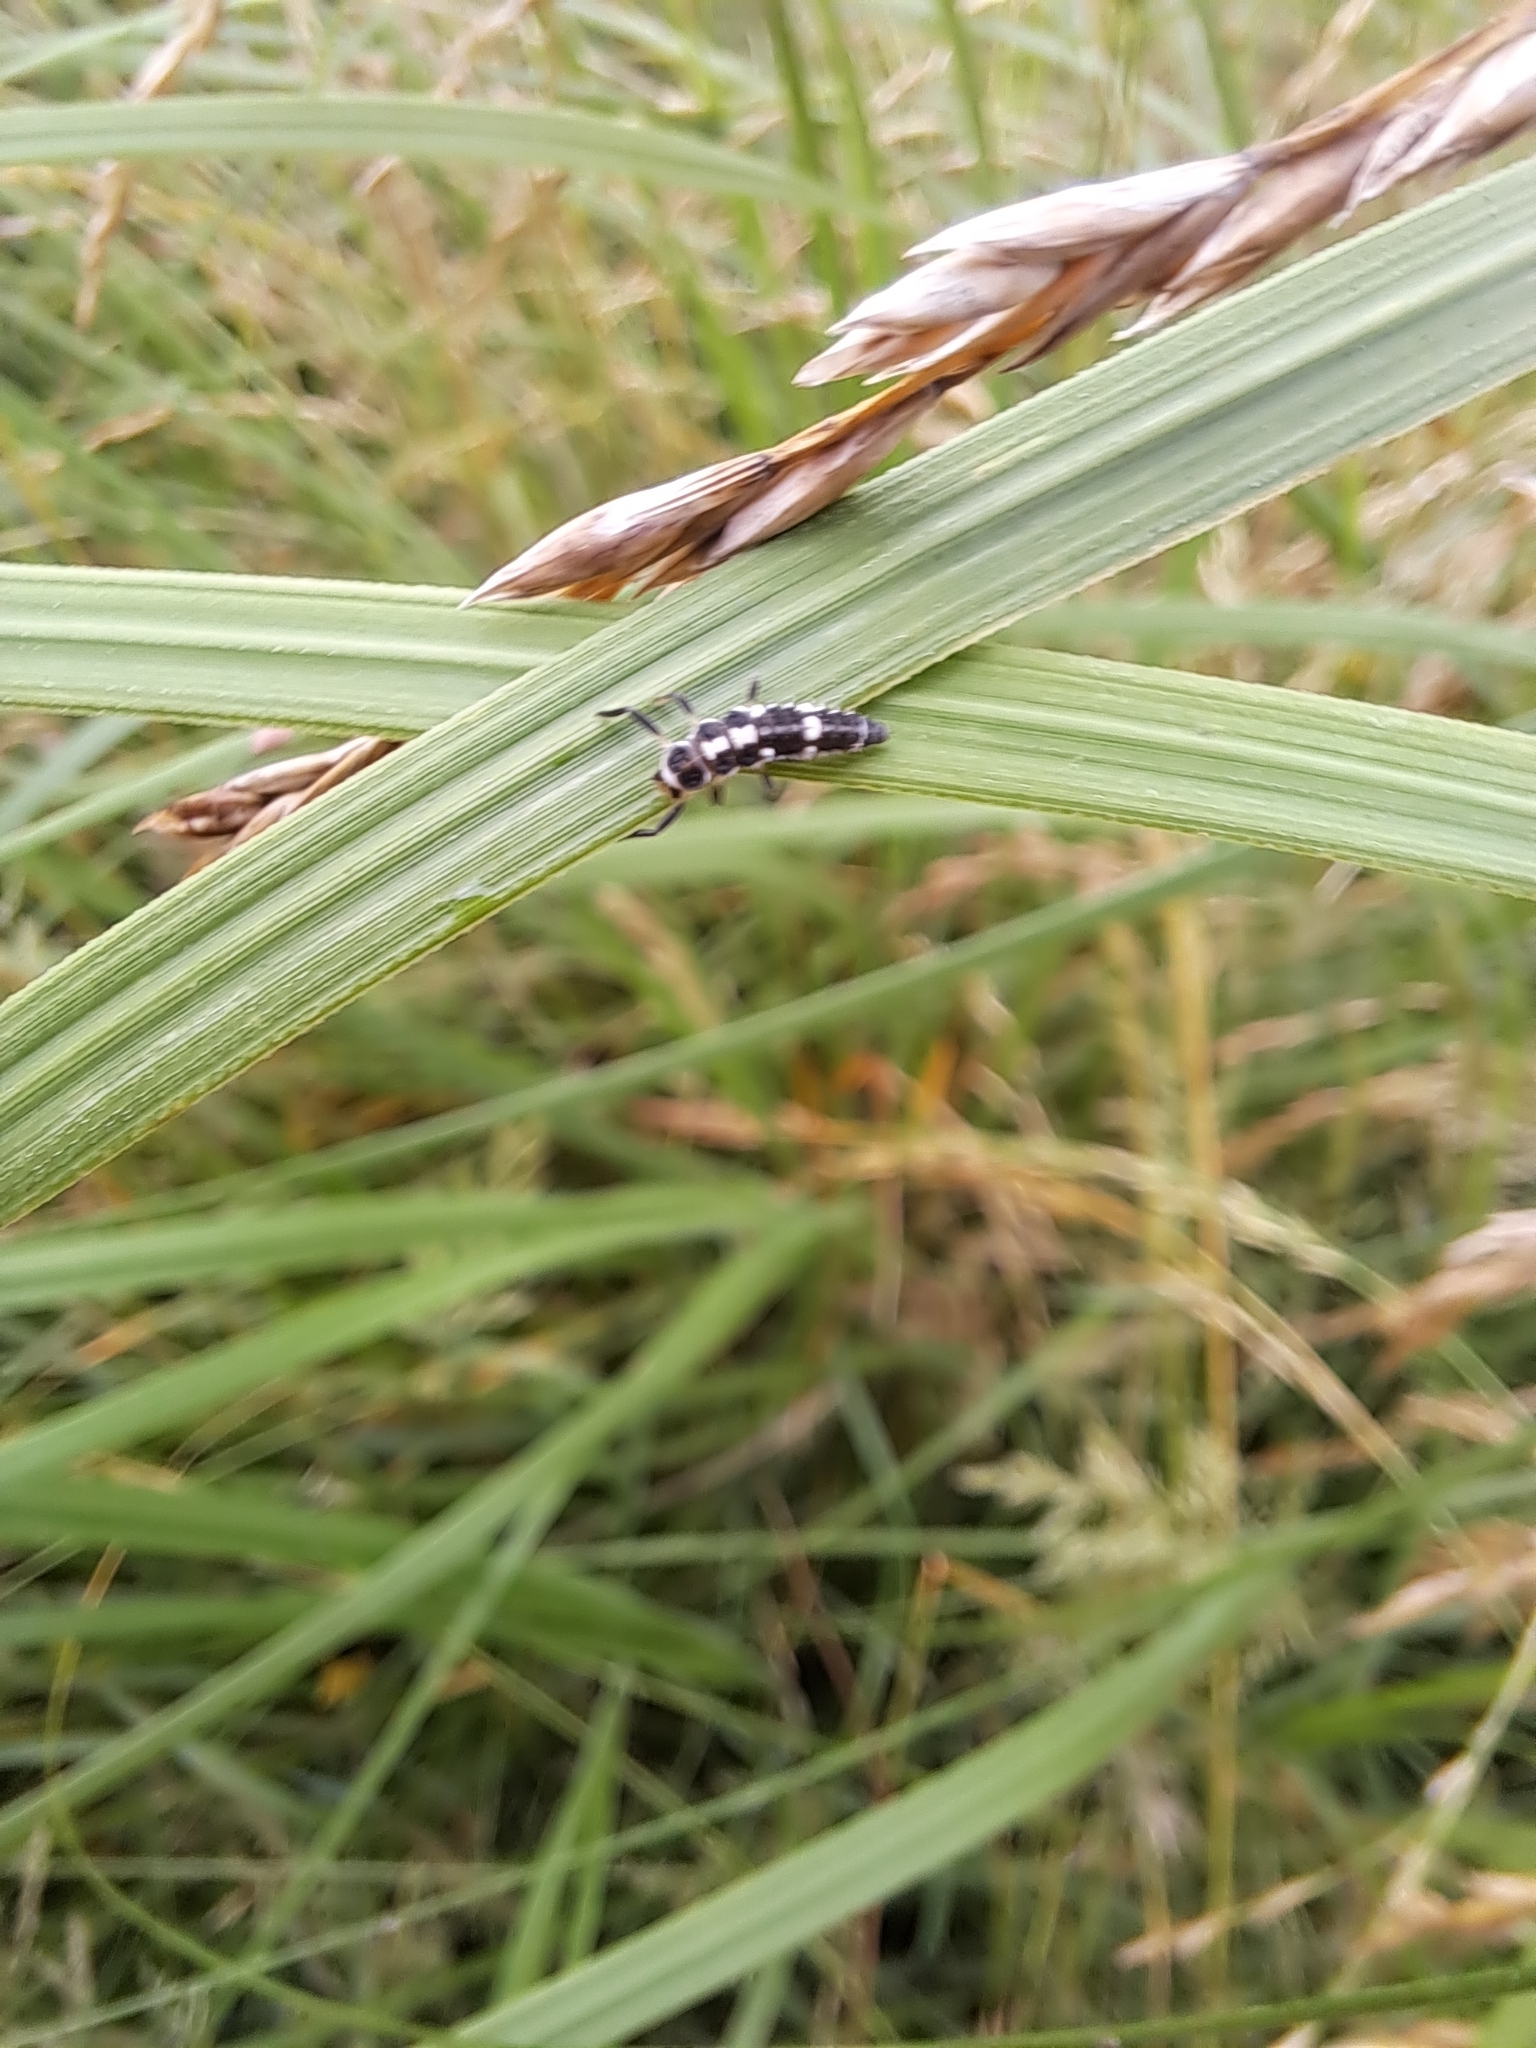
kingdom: Animalia
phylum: Arthropoda
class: Insecta
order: Coleoptera
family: Coccinellidae
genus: Propylaea
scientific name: Propylaea quatuordecimpunctata
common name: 14-spotted ladybird beetle
